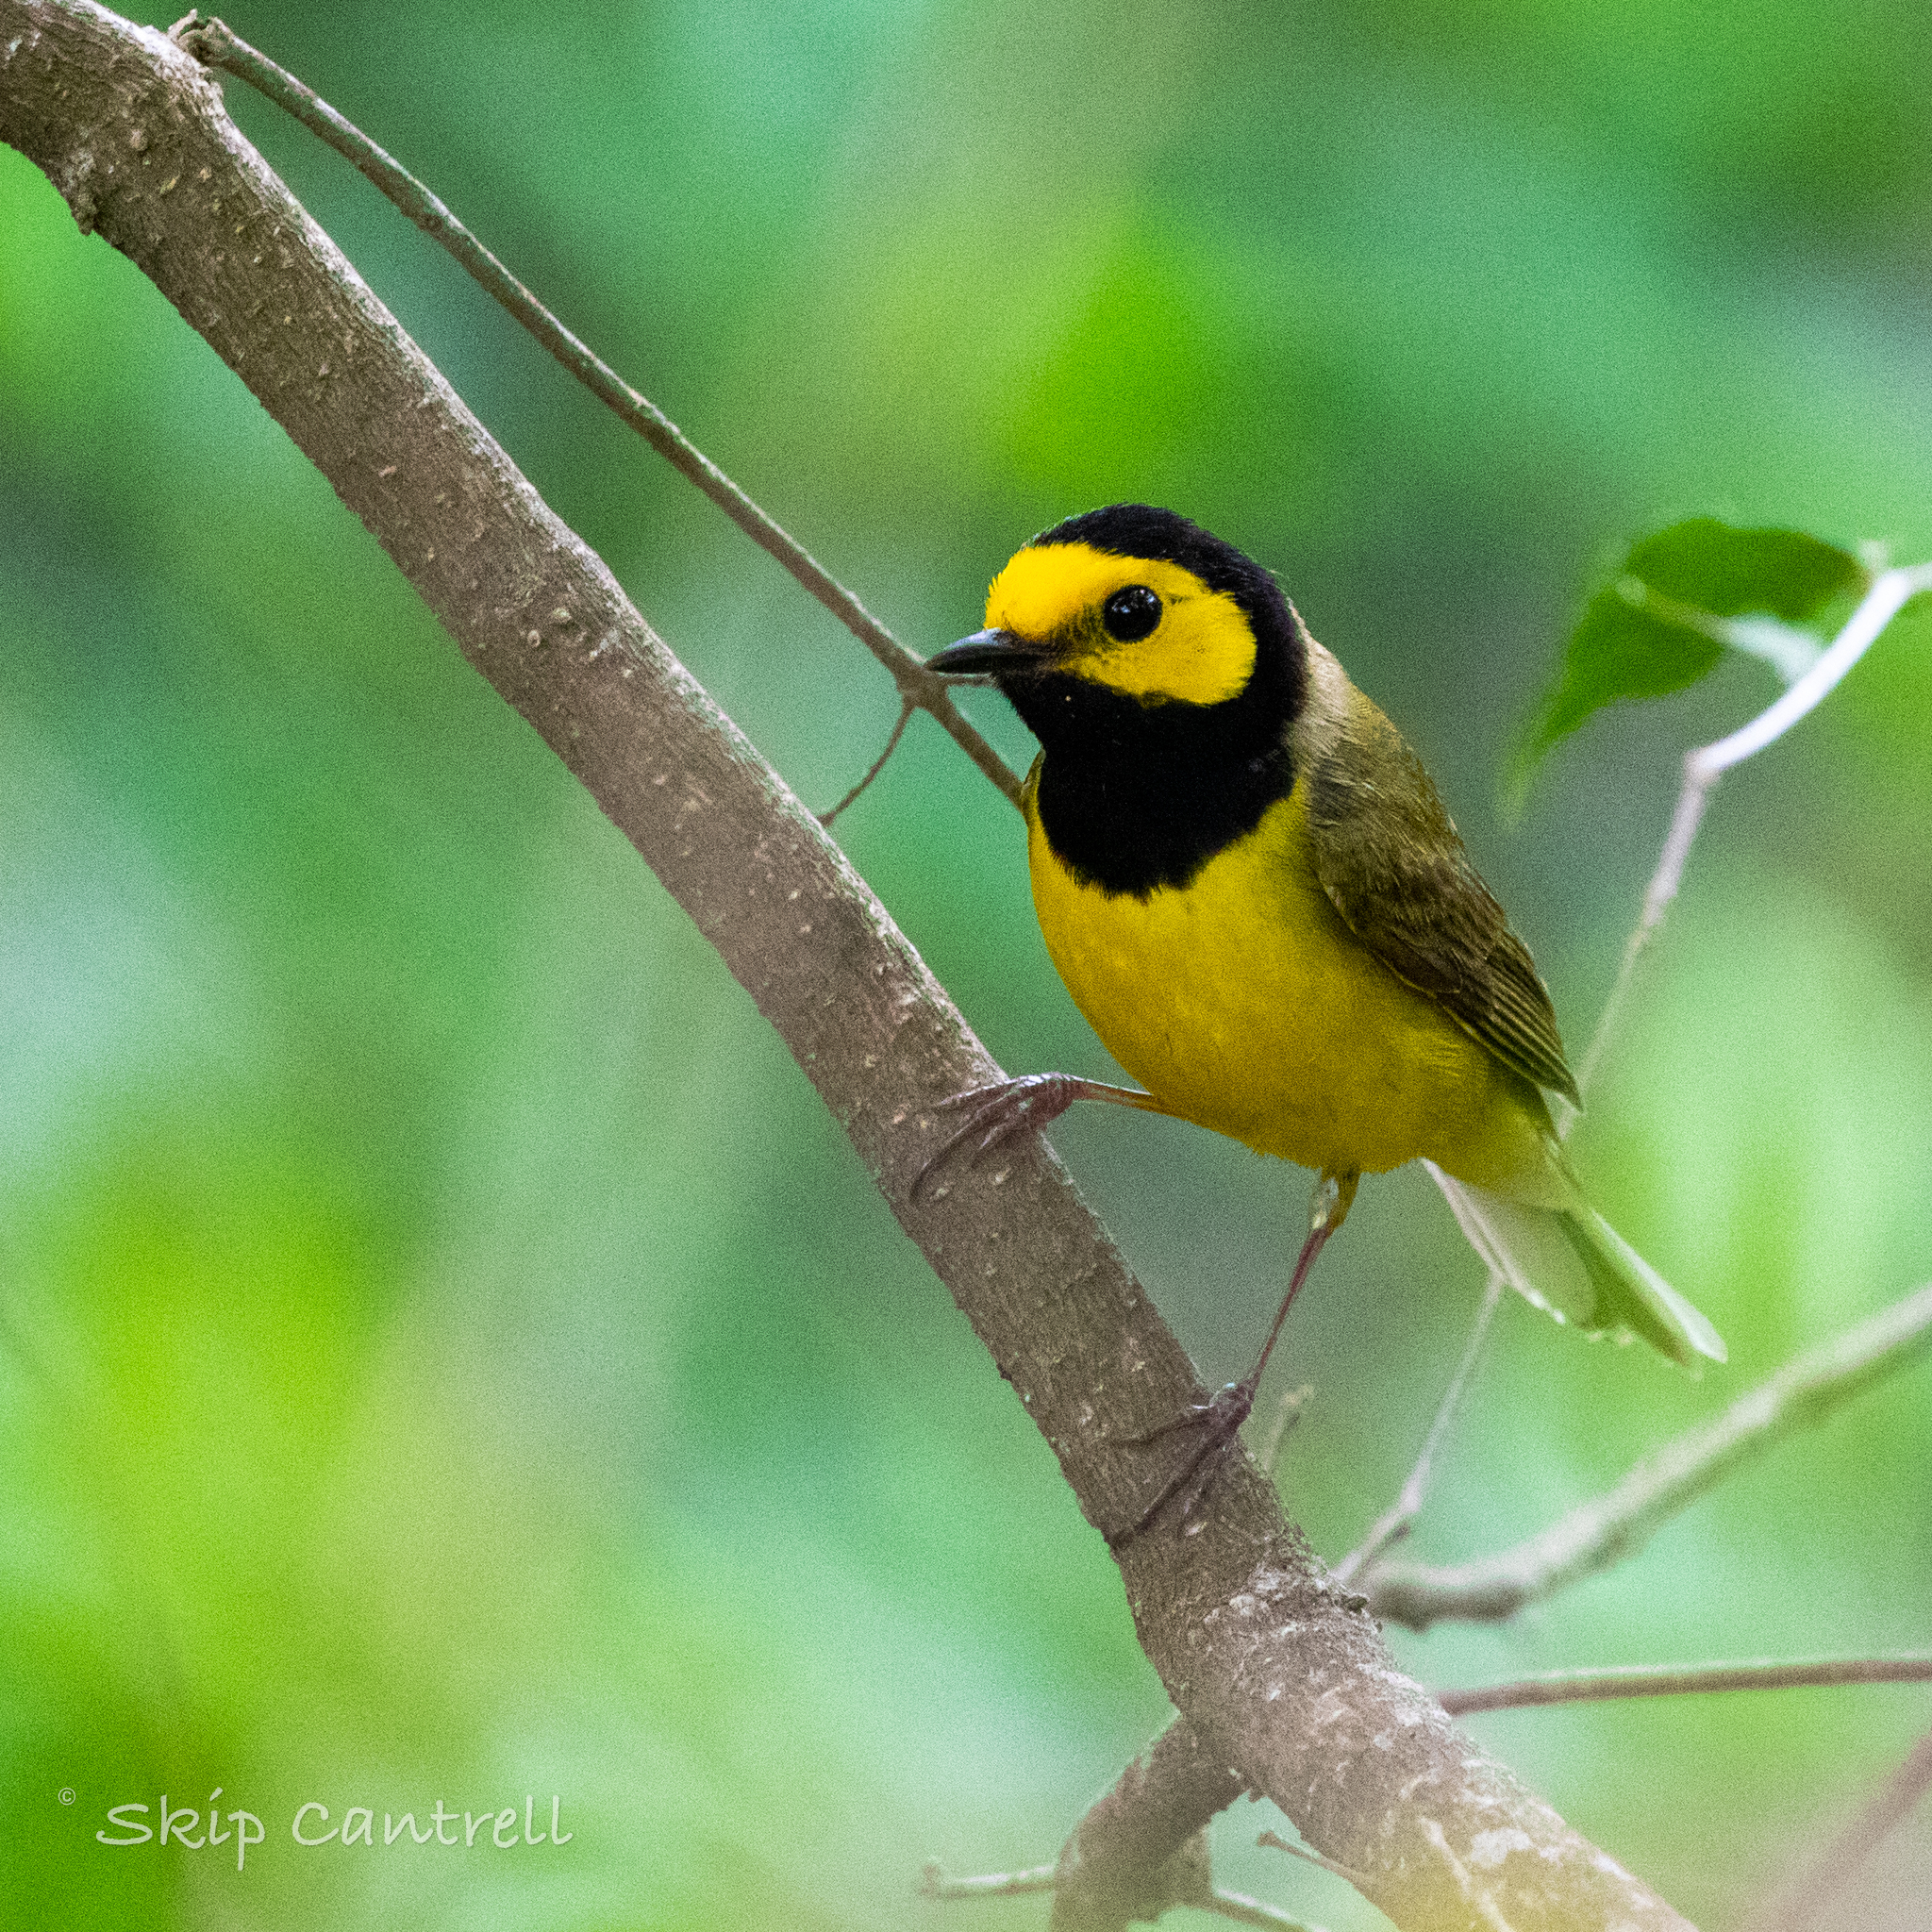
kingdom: Animalia
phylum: Chordata
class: Aves
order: Passeriformes
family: Parulidae
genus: Setophaga
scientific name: Setophaga citrina
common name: Hooded warbler
